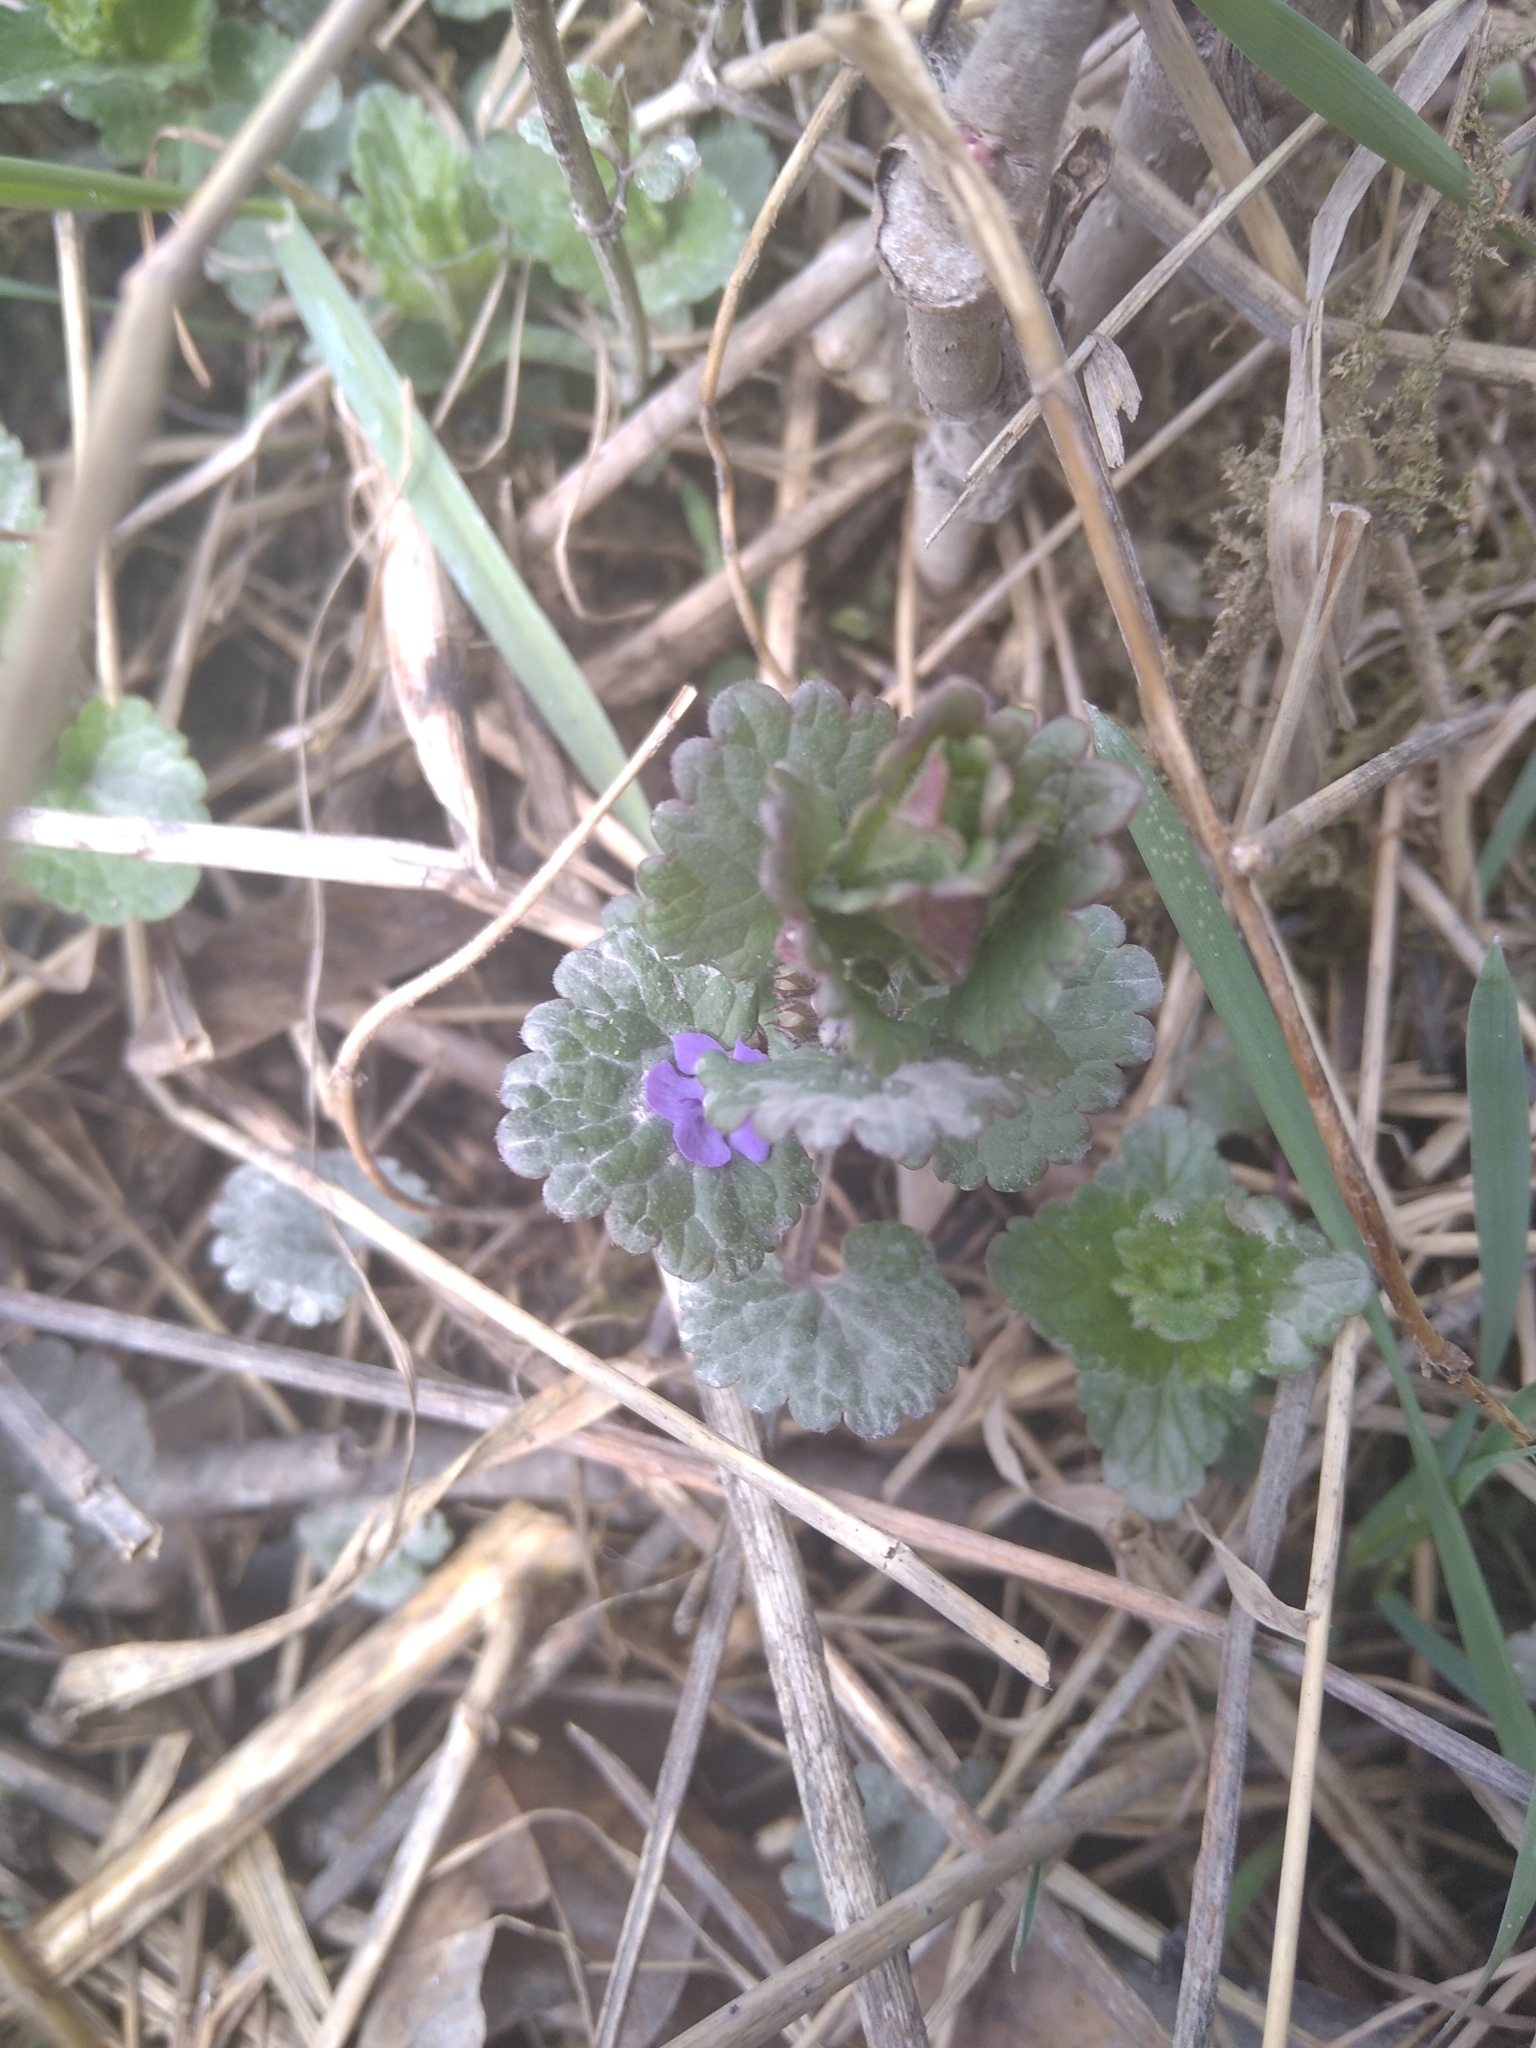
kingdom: Plantae
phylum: Tracheophyta
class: Magnoliopsida
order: Lamiales
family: Lamiaceae
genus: Glechoma
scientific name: Glechoma hederacea
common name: Ground ivy
